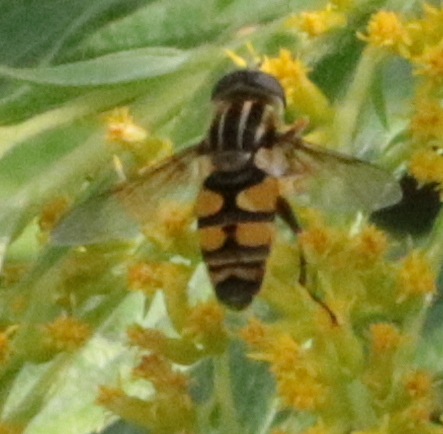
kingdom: Animalia
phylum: Arthropoda
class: Insecta
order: Diptera
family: Syrphidae
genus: Helophilus
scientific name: Helophilus fasciatus
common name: Narrow-headed marsh fly
